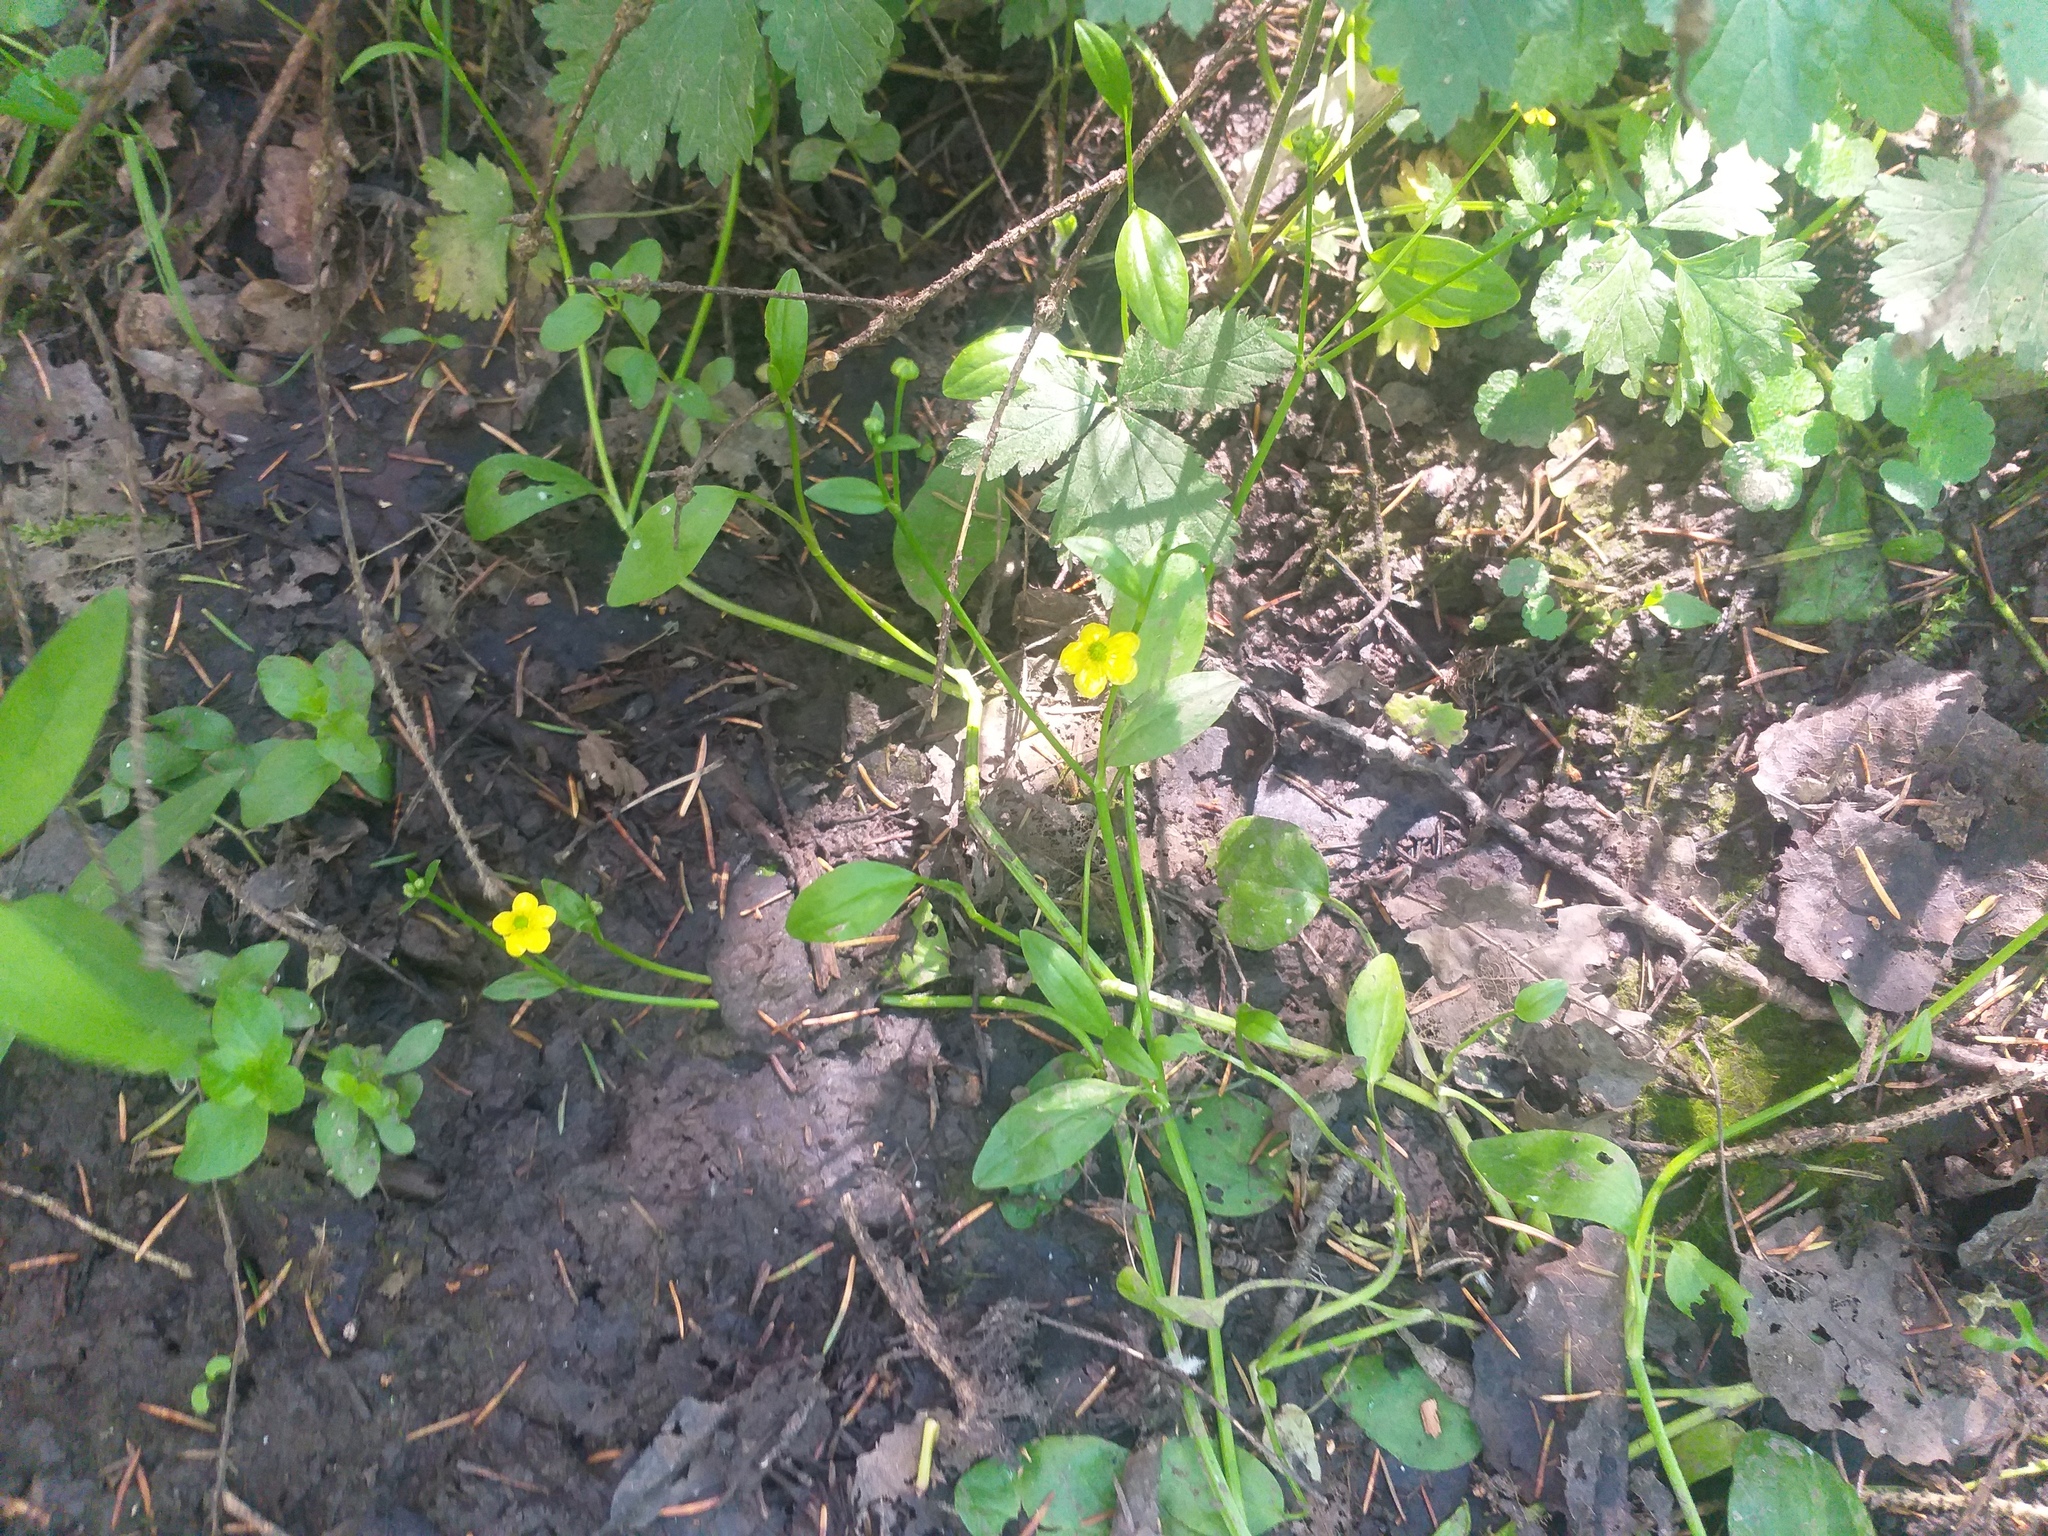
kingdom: Plantae
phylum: Tracheophyta
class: Magnoliopsida
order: Ranunculales
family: Ranunculaceae
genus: Ranunculus
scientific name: Ranunculus flammula
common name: Lesser spearwort
